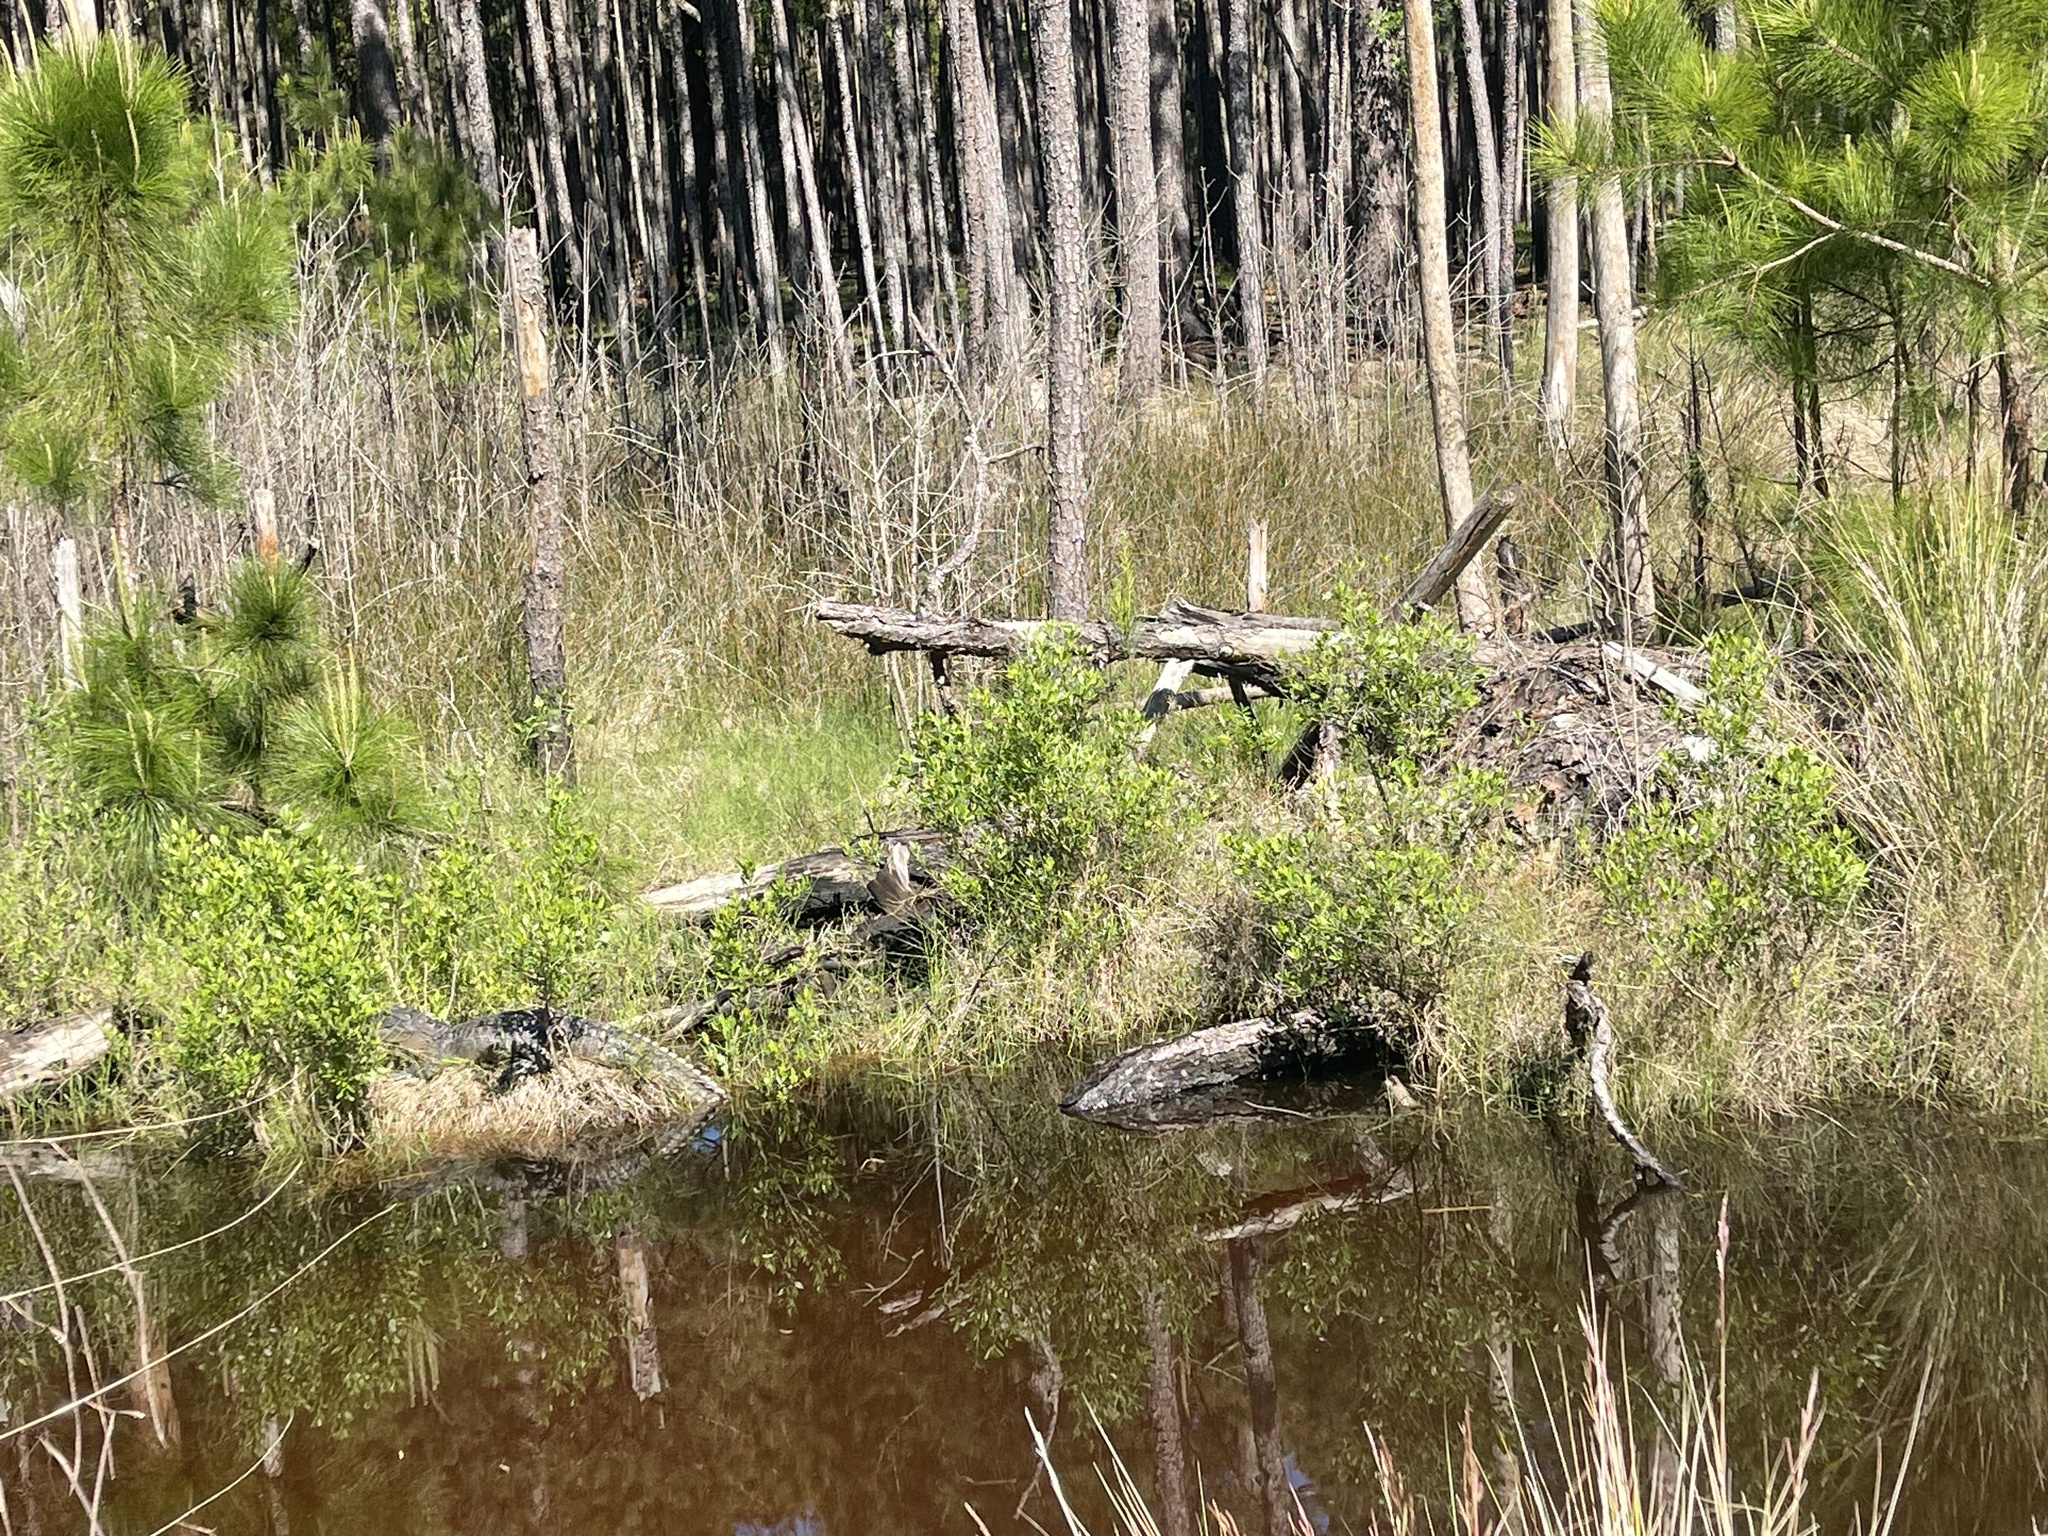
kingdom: Animalia
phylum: Chordata
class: Crocodylia
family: Alligatoridae
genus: Alligator
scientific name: Alligator mississippiensis
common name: American alligator
